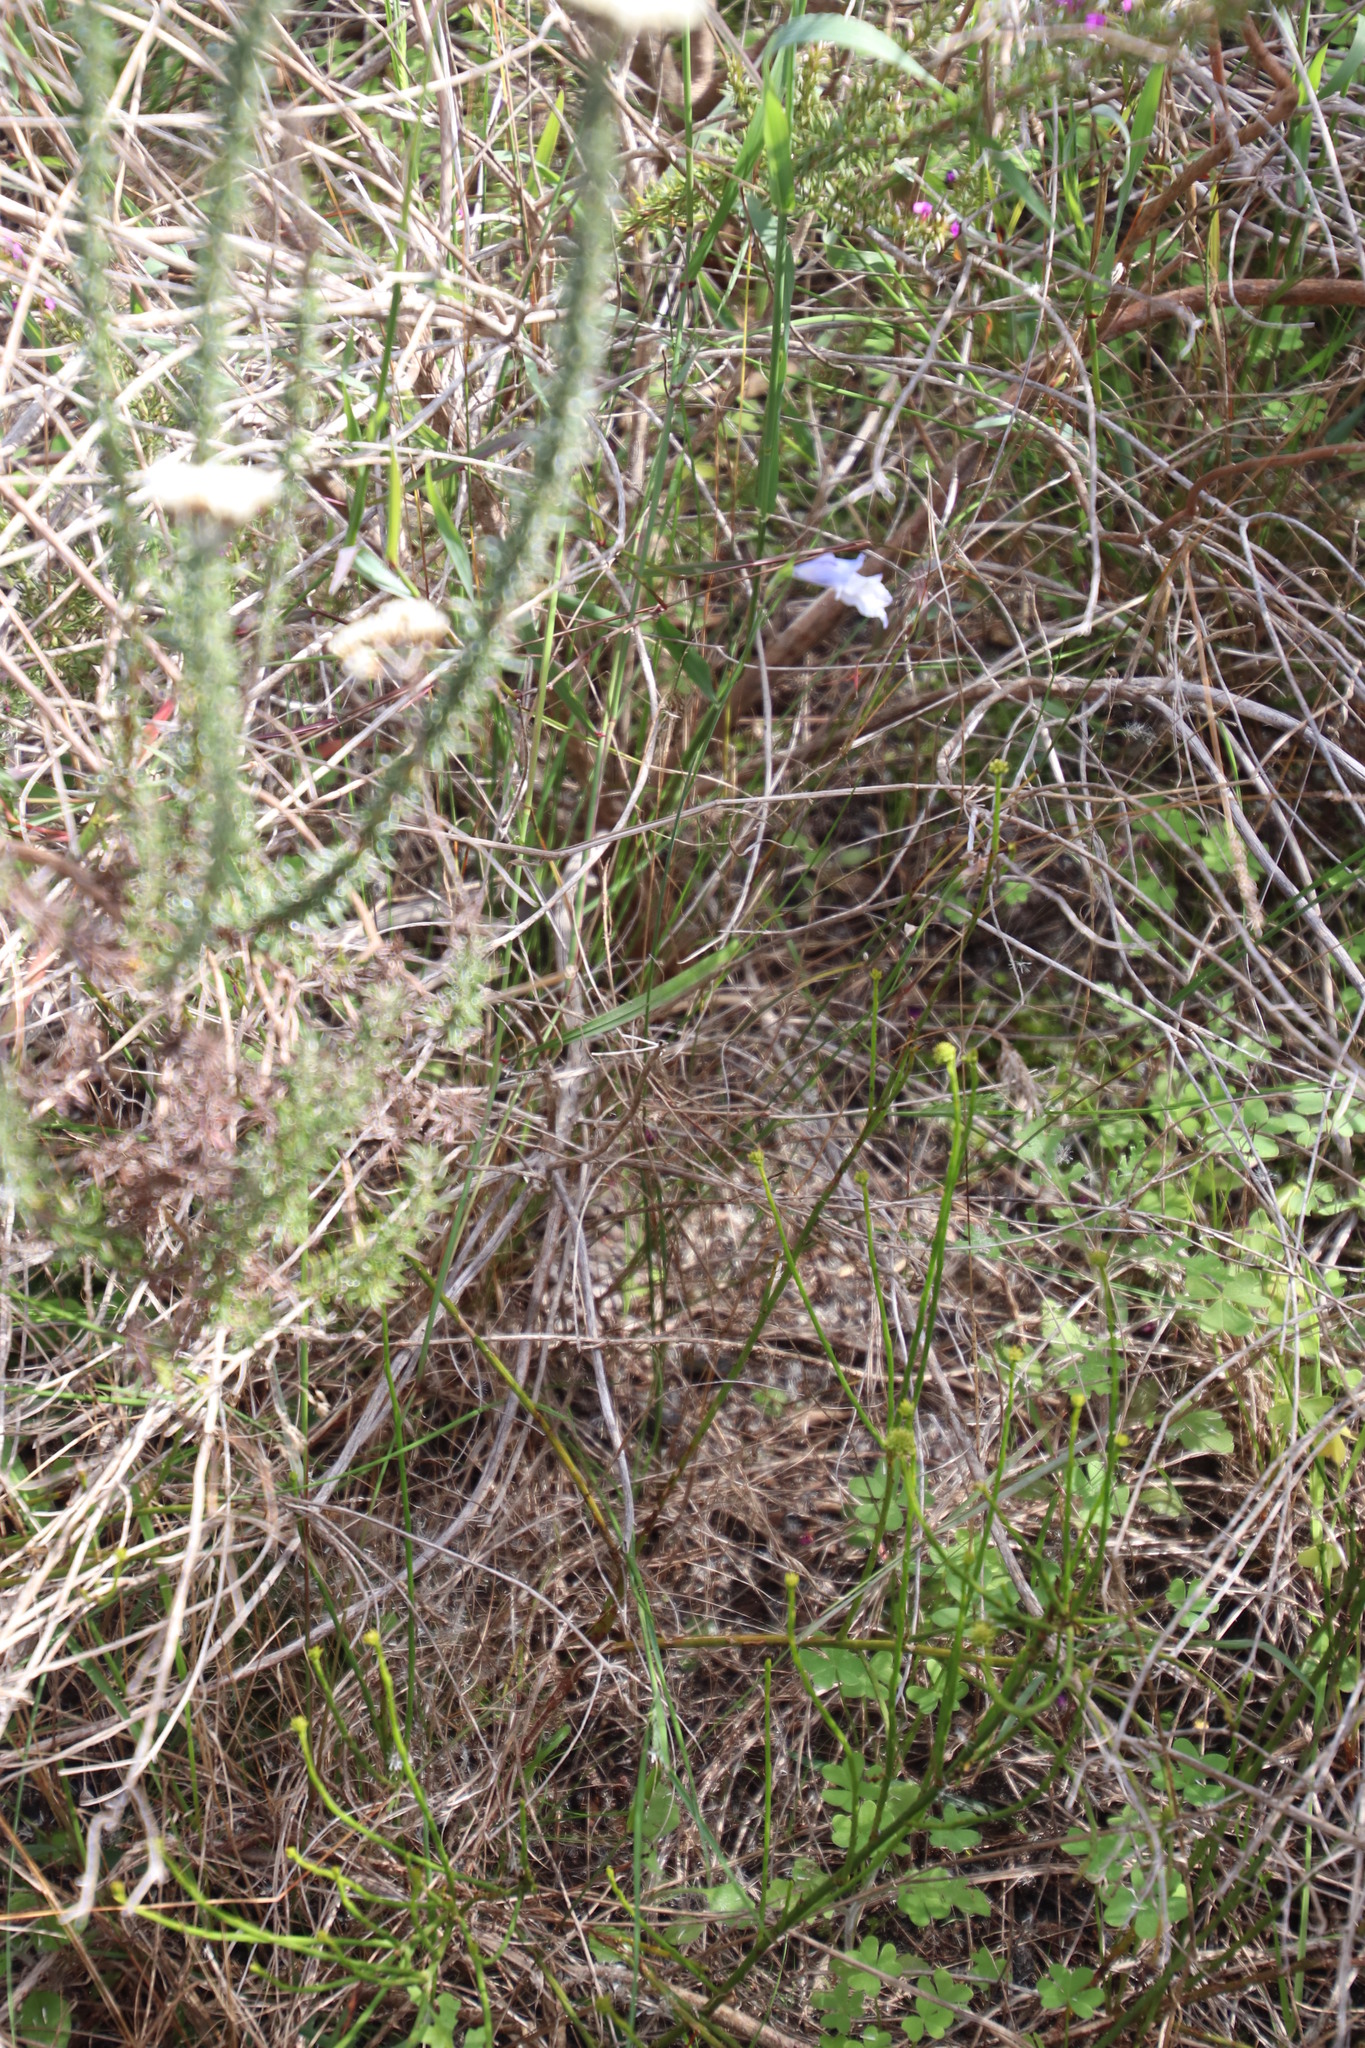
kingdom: Plantae
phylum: Tracheophyta
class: Liliopsida
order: Asparagales
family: Iridaceae
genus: Gladiolus
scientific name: Gladiolus gracilis
